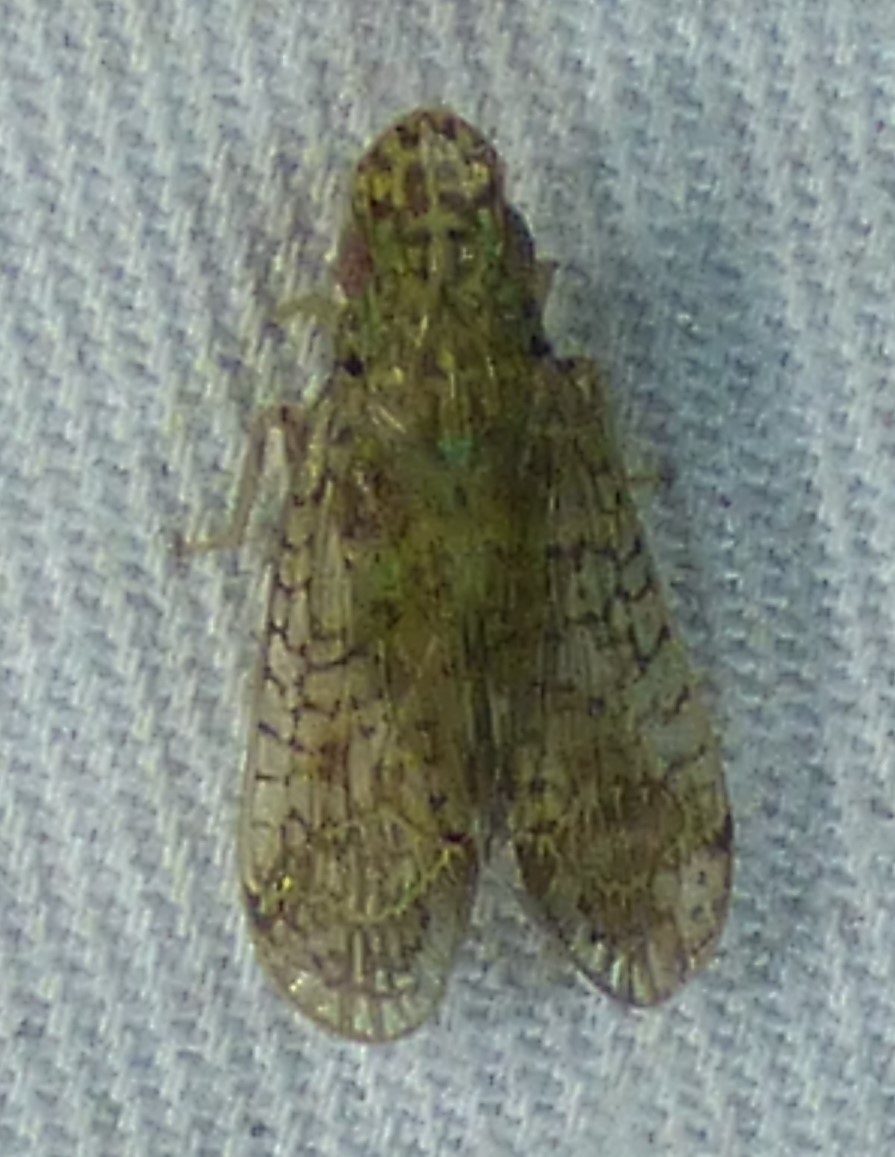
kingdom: Animalia
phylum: Arthropoda
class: Insecta
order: Hemiptera
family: Tropiduchidae
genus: Pelitropis
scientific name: Pelitropis rotulata
